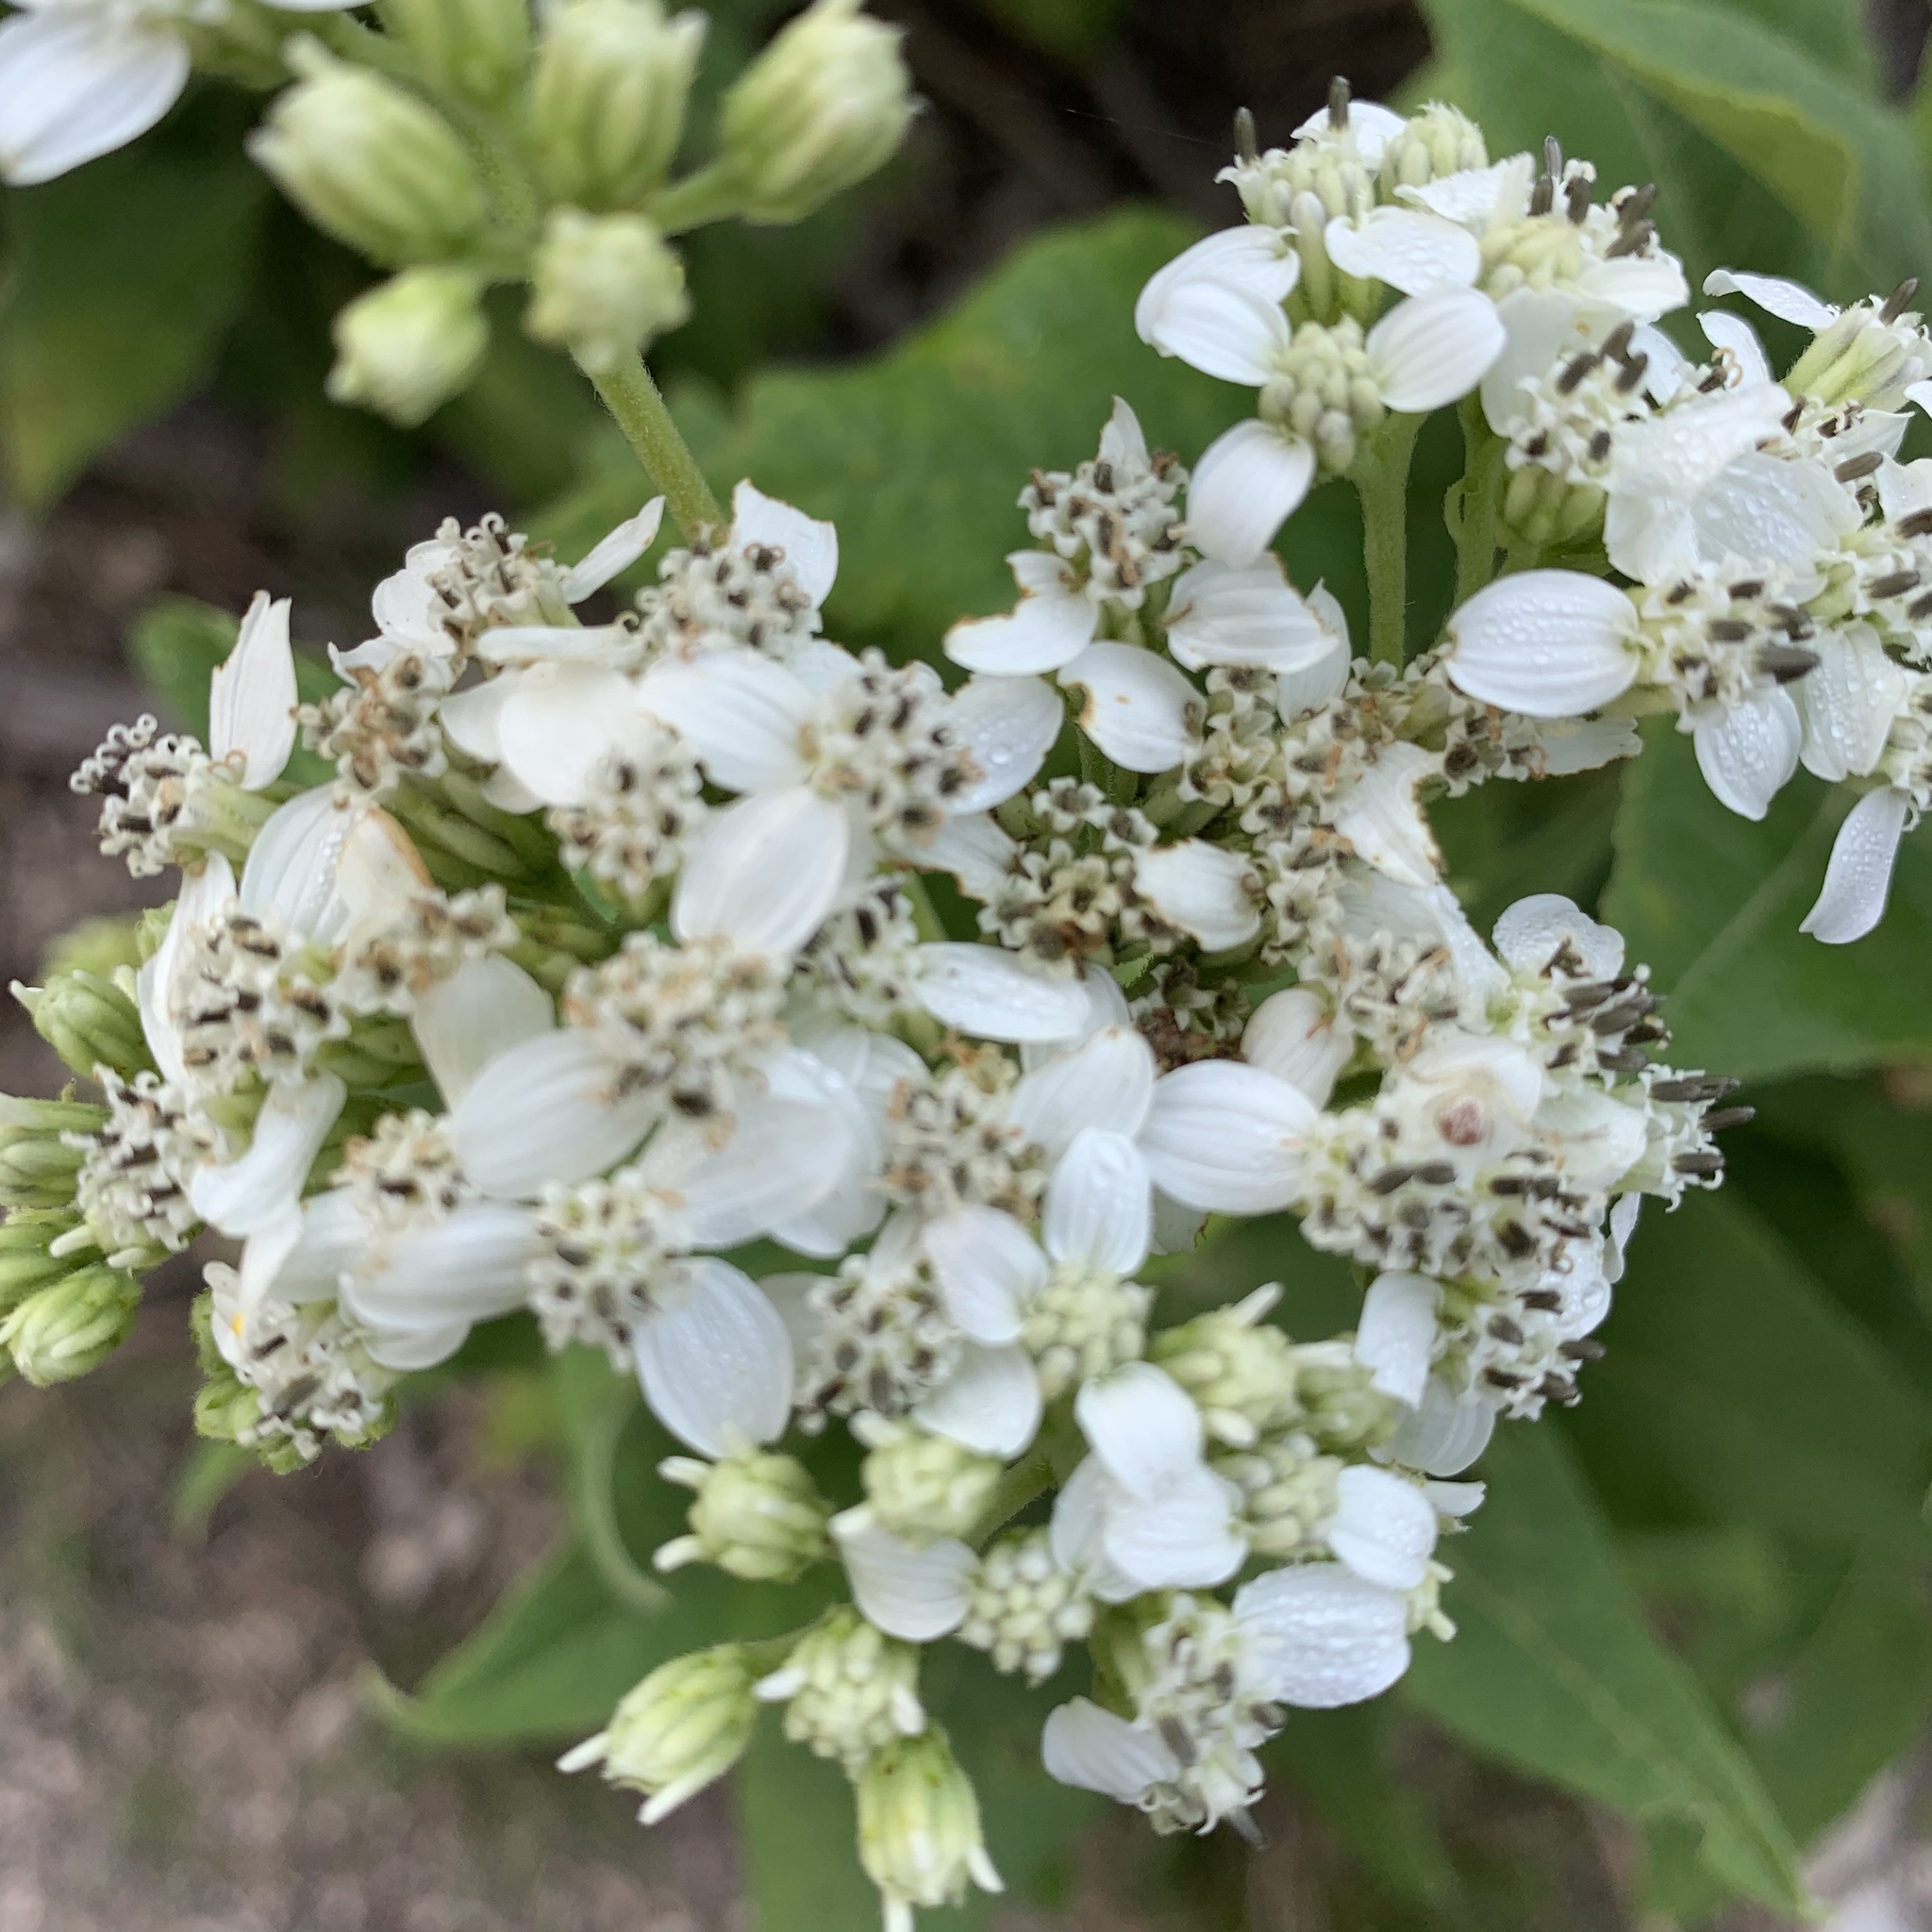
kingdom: Plantae
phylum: Tracheophyta
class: Magnoliopsida
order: Asterales
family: Asteraceae
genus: Verbesina
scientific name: Verbesina virginica
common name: Frostweed
